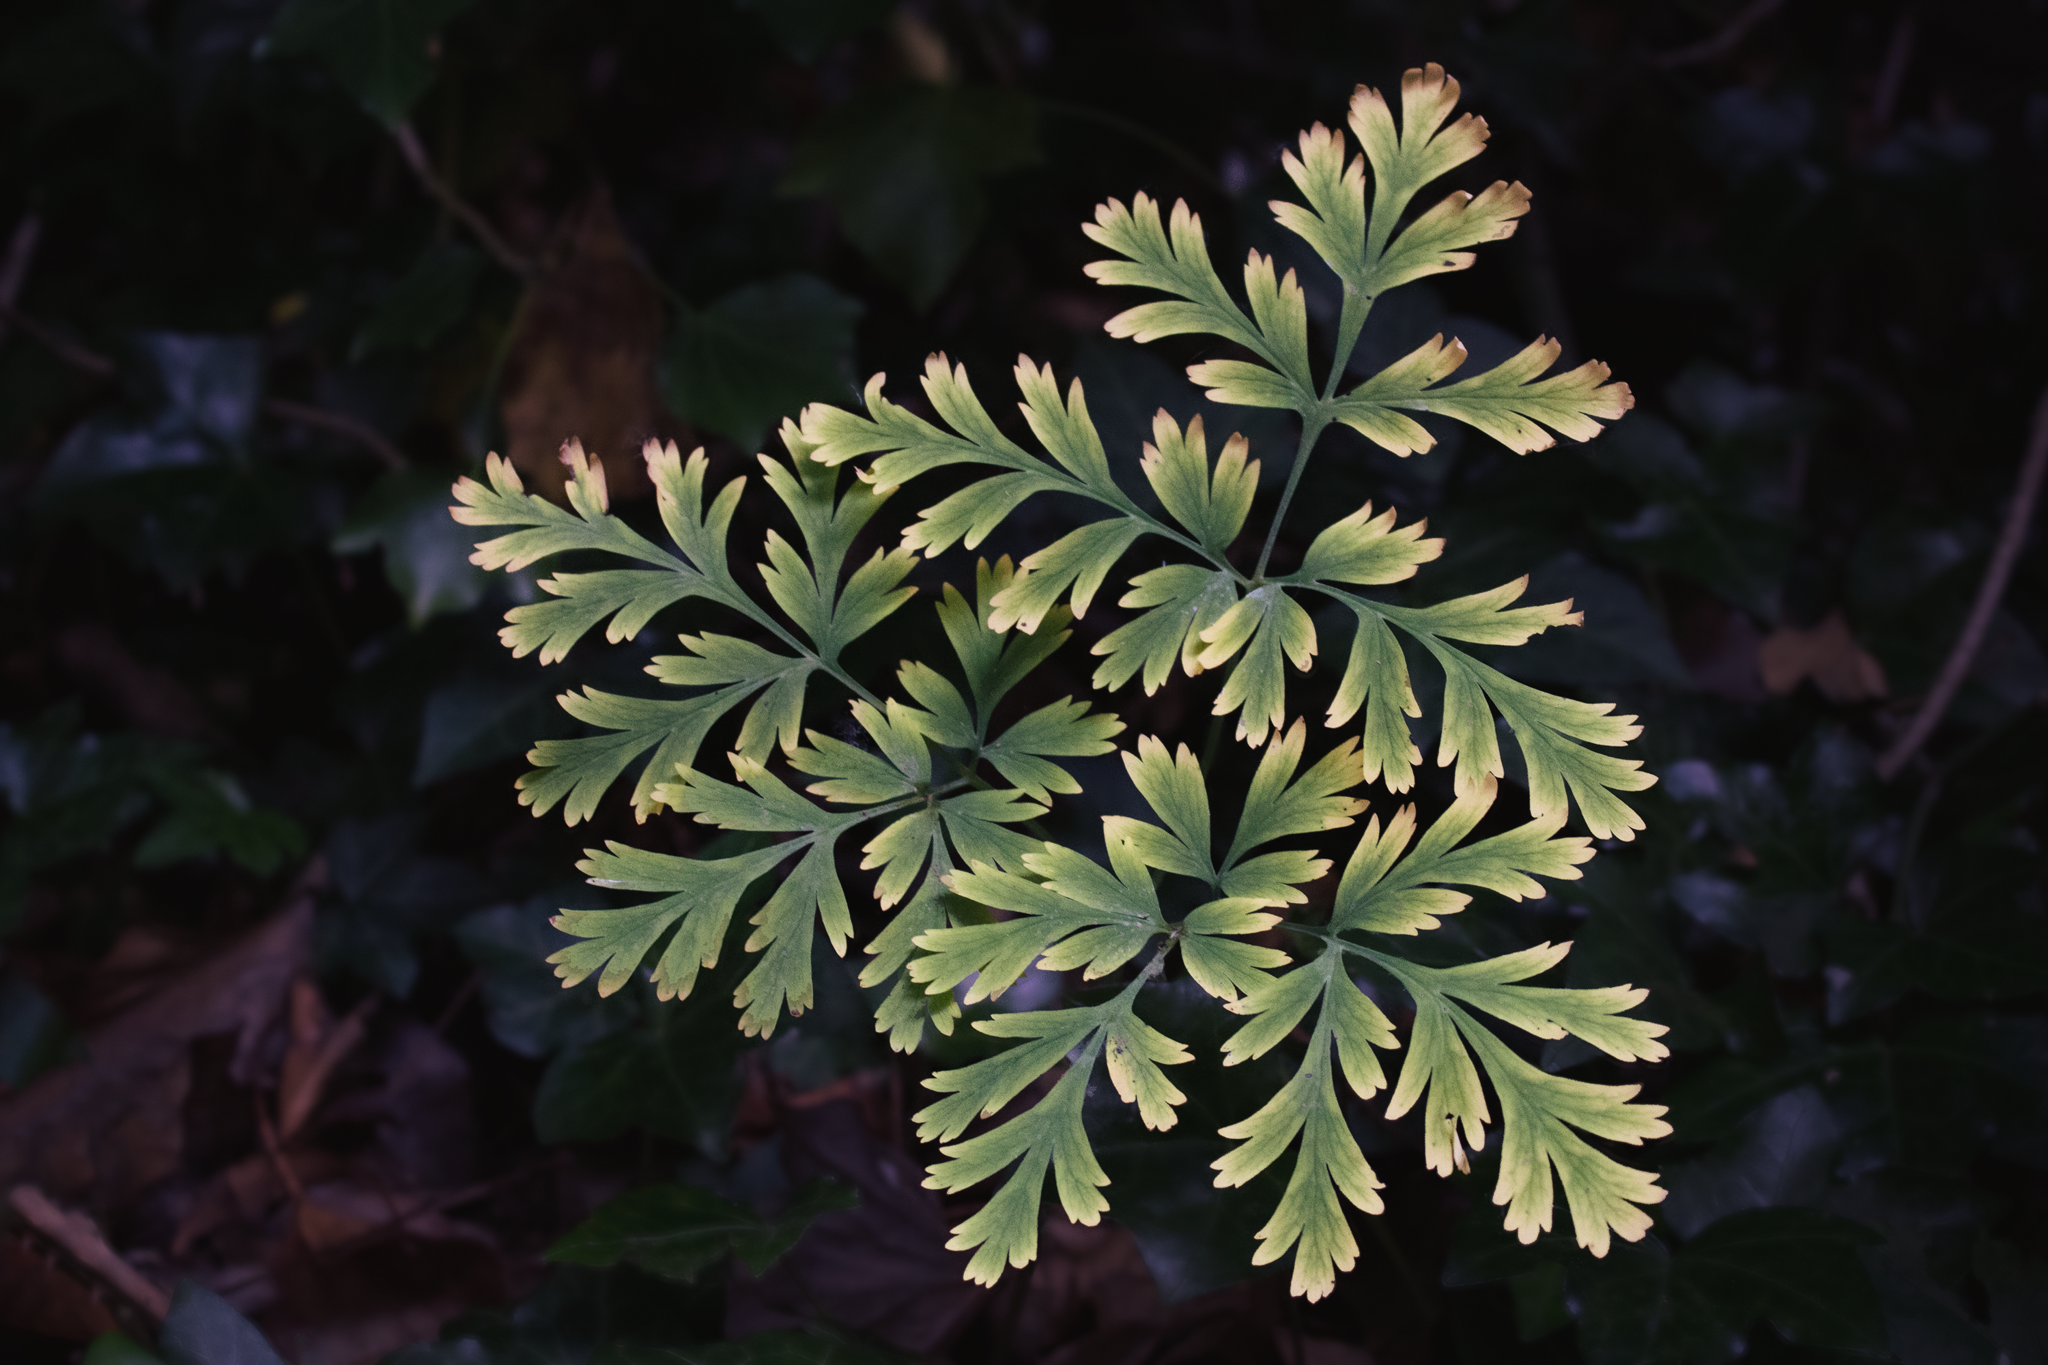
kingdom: Plantae
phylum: Tracheophyta
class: Magnoliopsida
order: Ranunculales
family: Papaveraceae
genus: Dicentra
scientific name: Dicentra formosa
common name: Bleeding-heart
